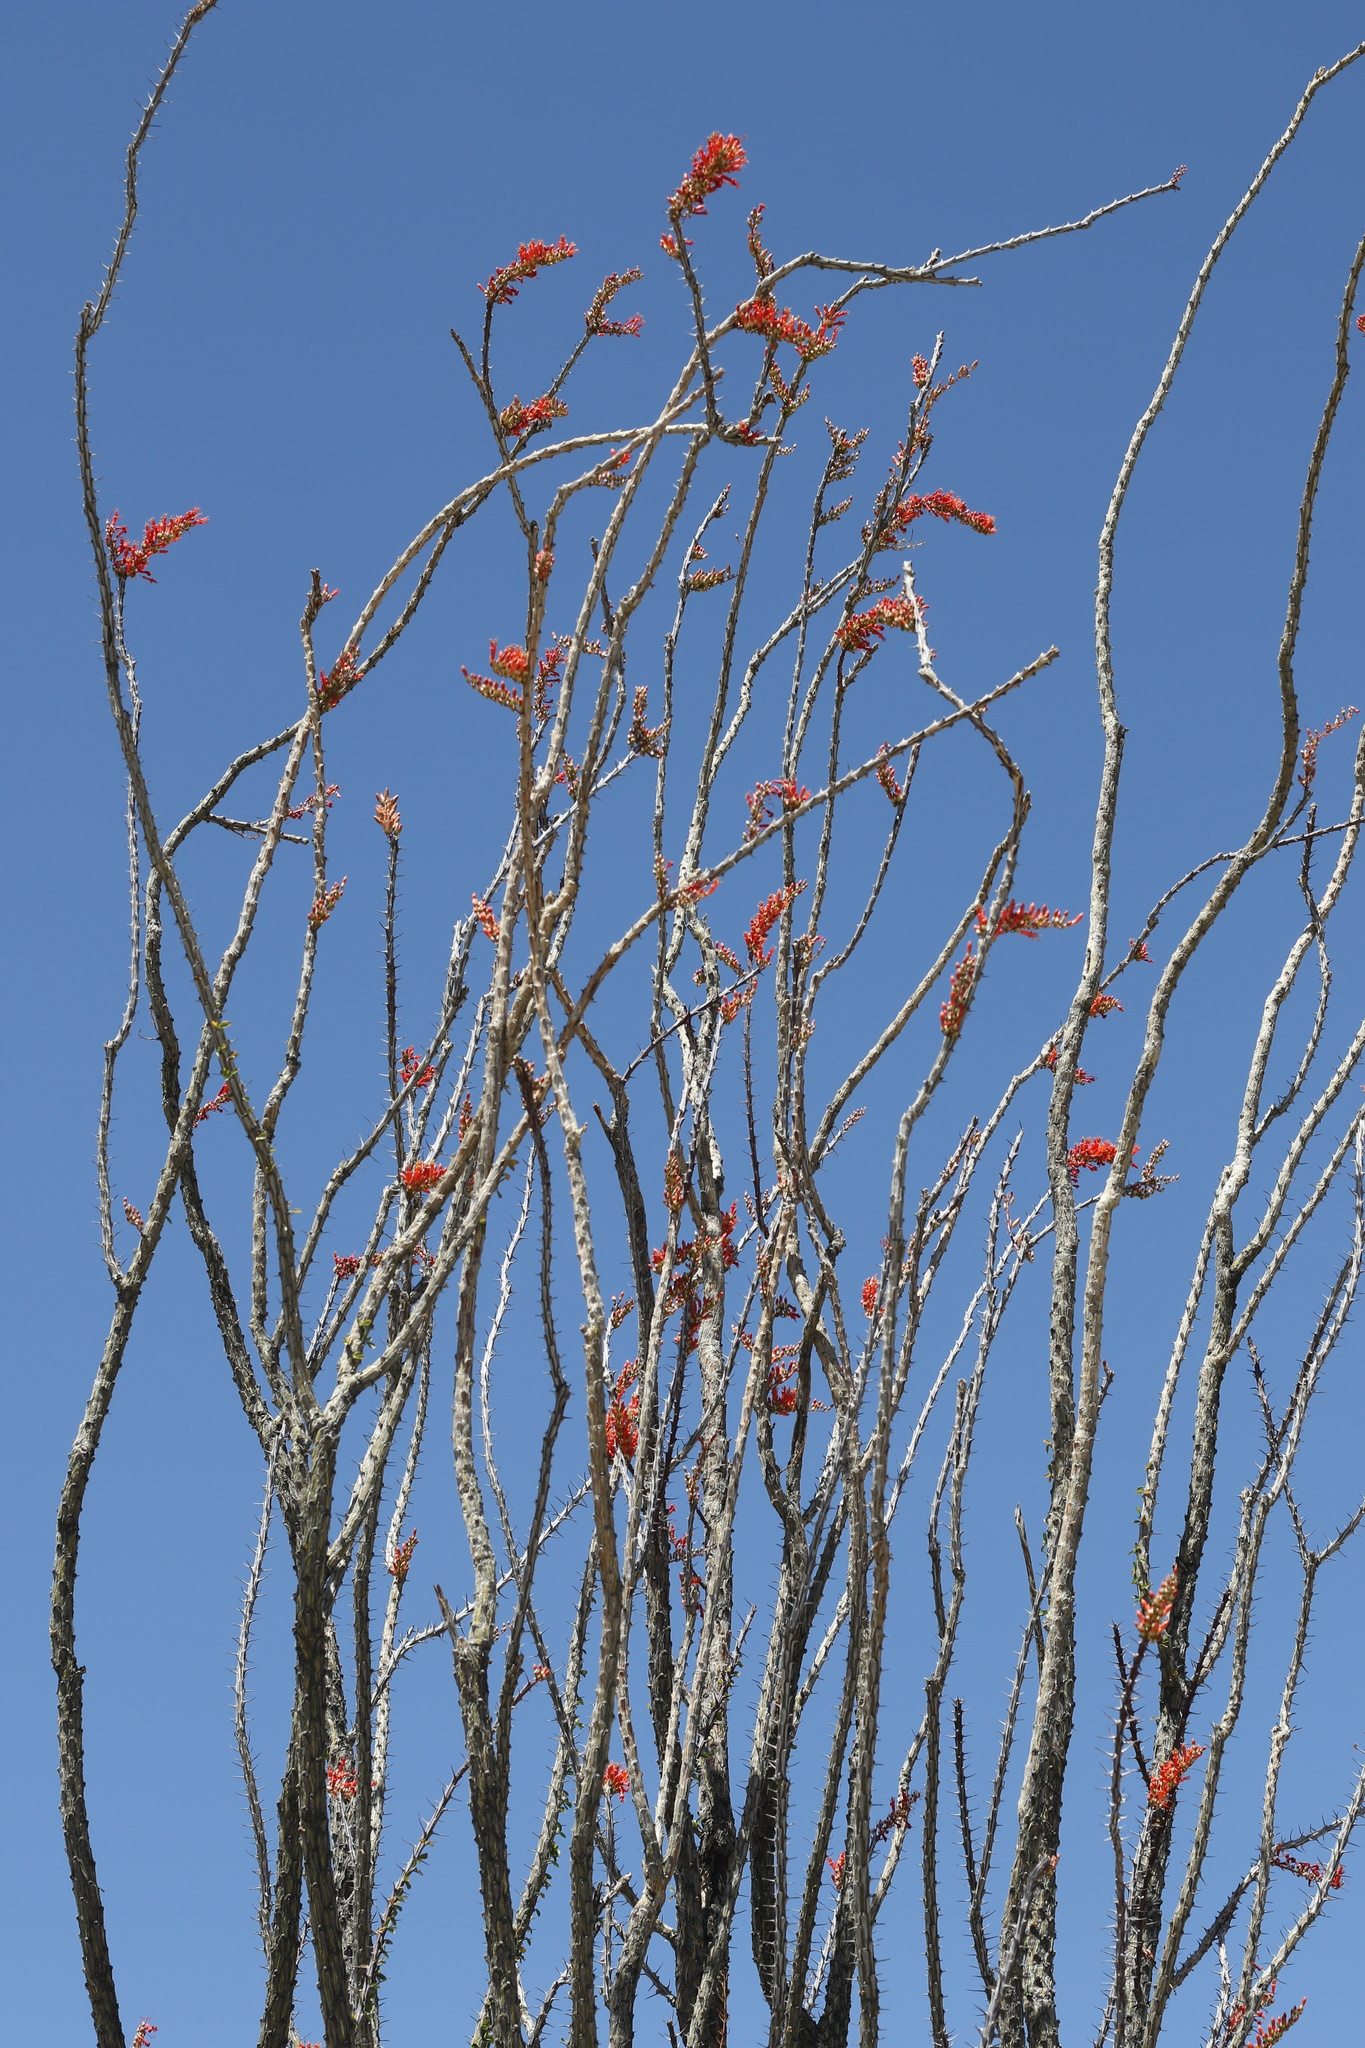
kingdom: Plantae
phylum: Tracheophyta
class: Magnoliopsida
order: Ericales
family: Fouquieriaceae
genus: Fouquieria
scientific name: Fouquieria splendens
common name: Vine-cactus
